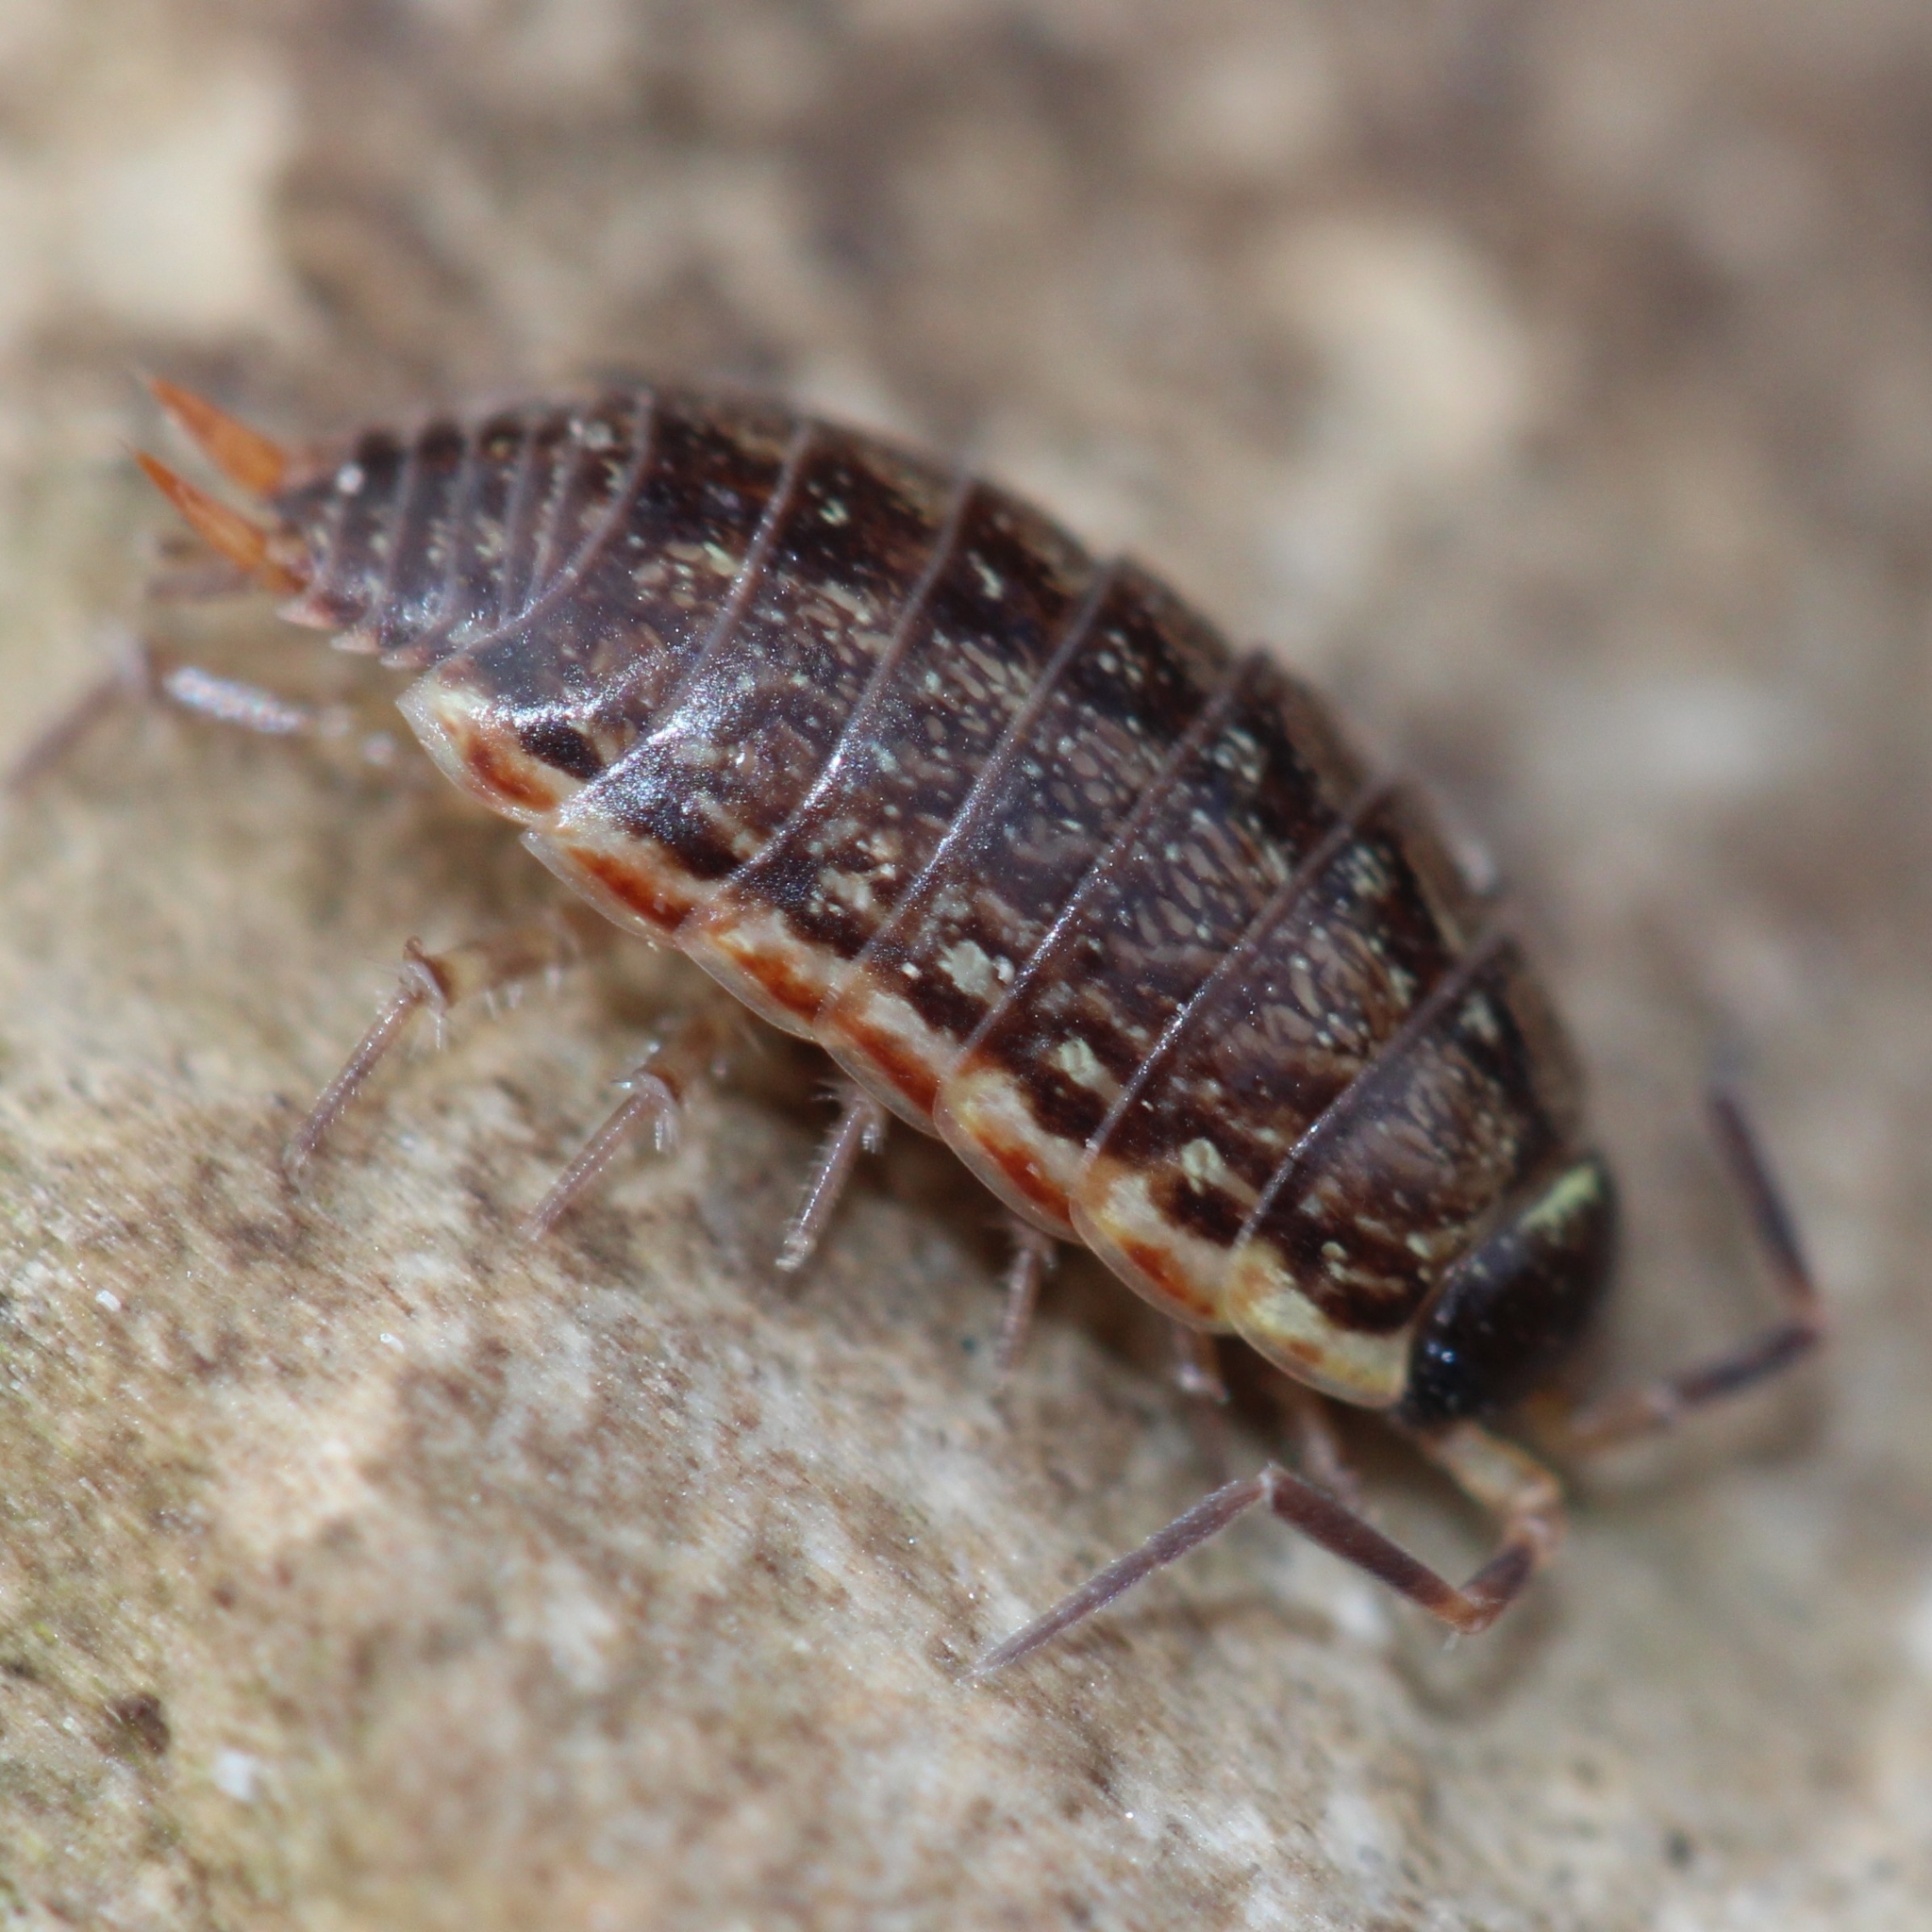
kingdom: Animalia
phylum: Arthropoda
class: Malacostraca
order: Isopoda
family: Philosciidae
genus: Philoscia
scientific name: Philoscia muscorum
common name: Common striped woodlouse
